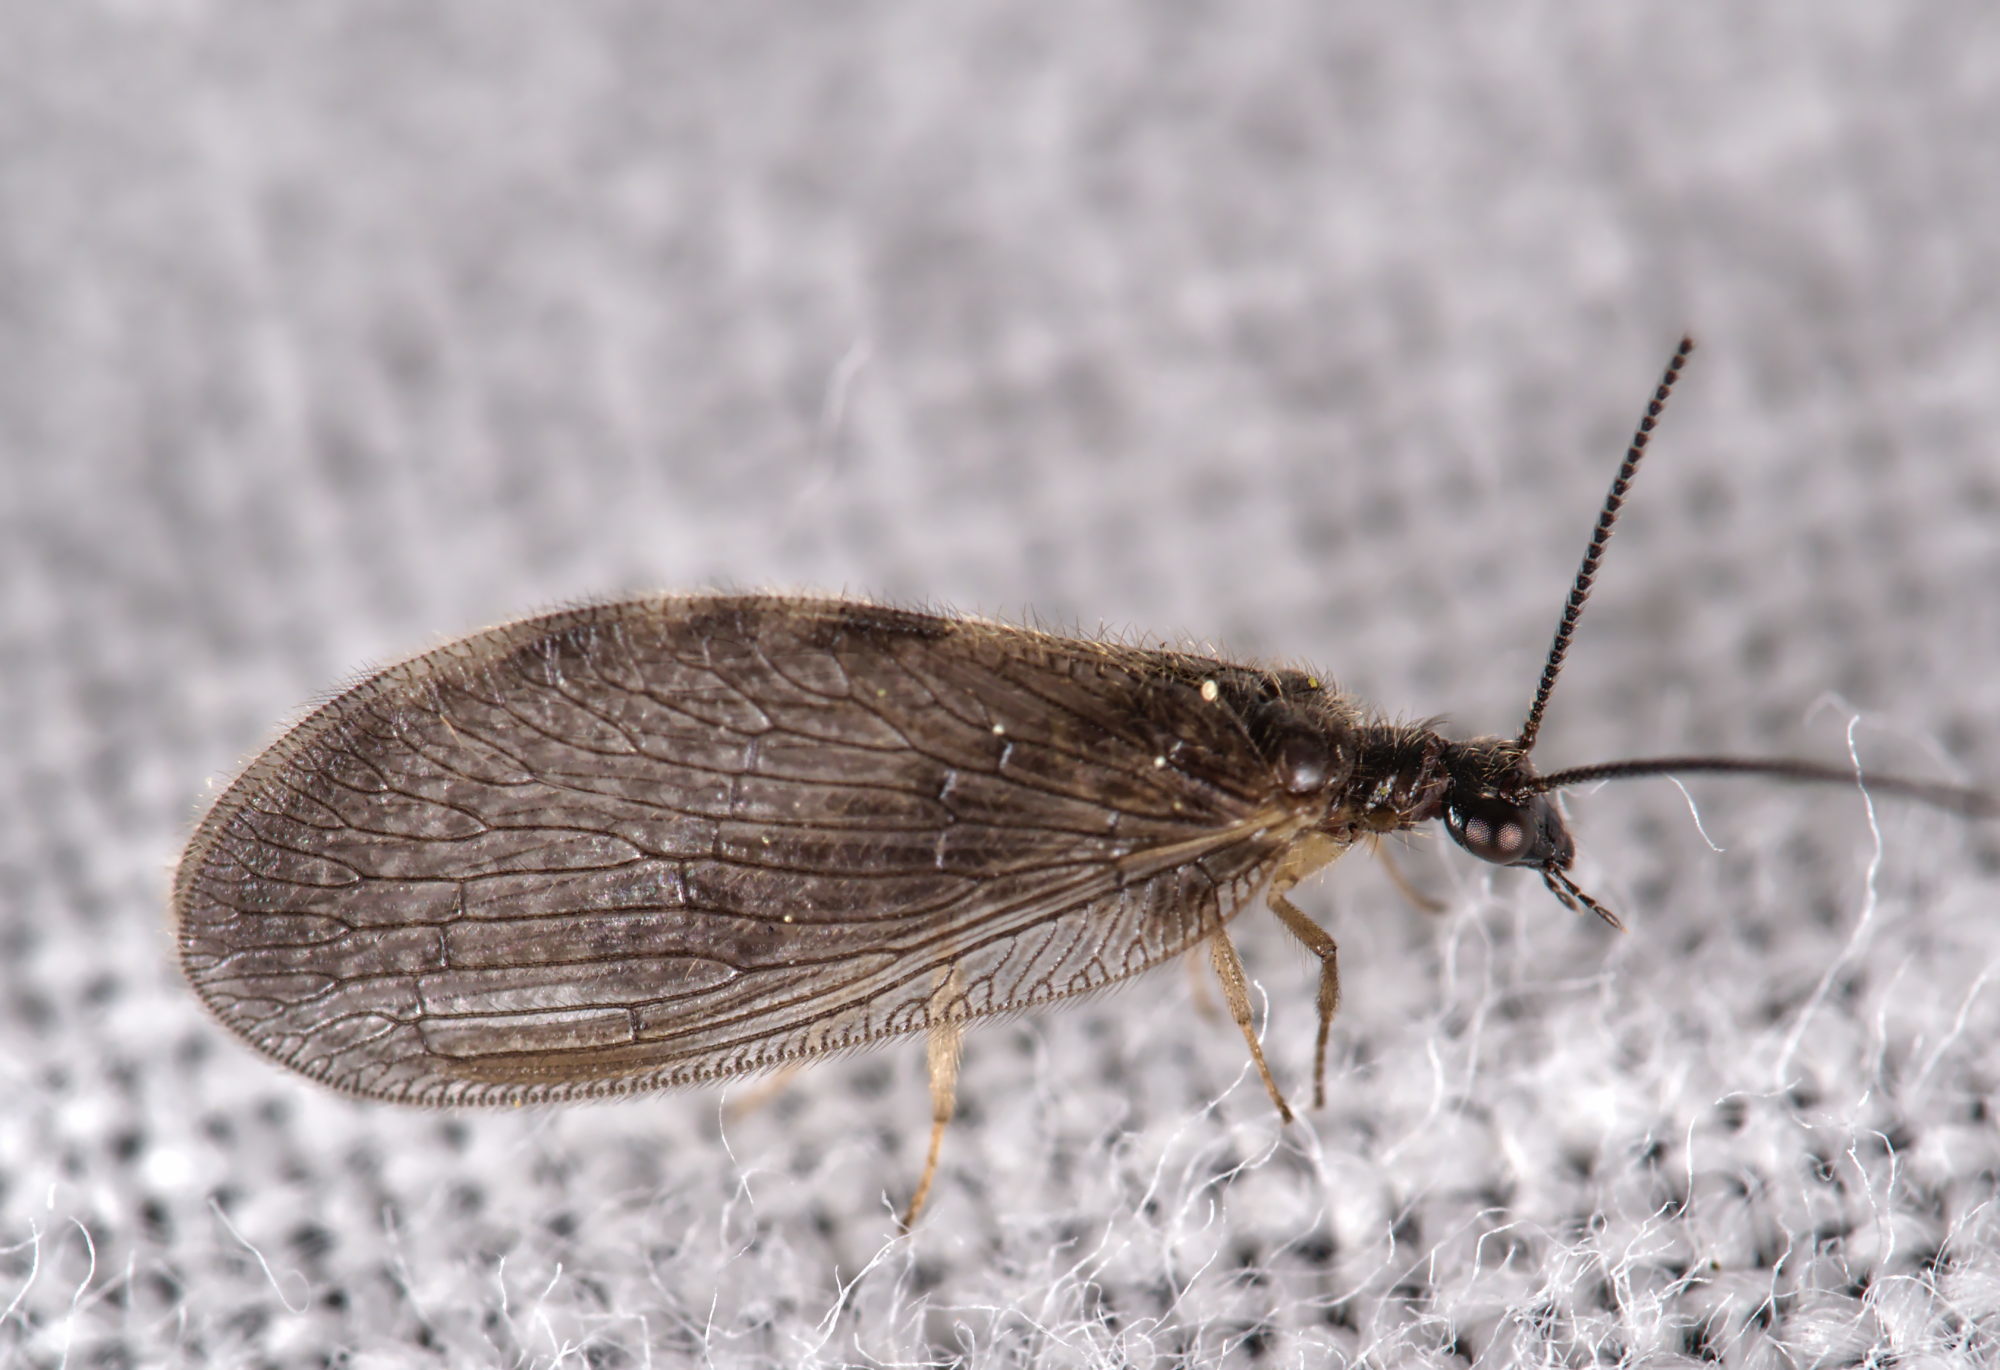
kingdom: Animalia
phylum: Arthropoda
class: Insecta
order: Neuroptera
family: Hemerobiidae
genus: Sympherobius
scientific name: Sympherobius elegans
